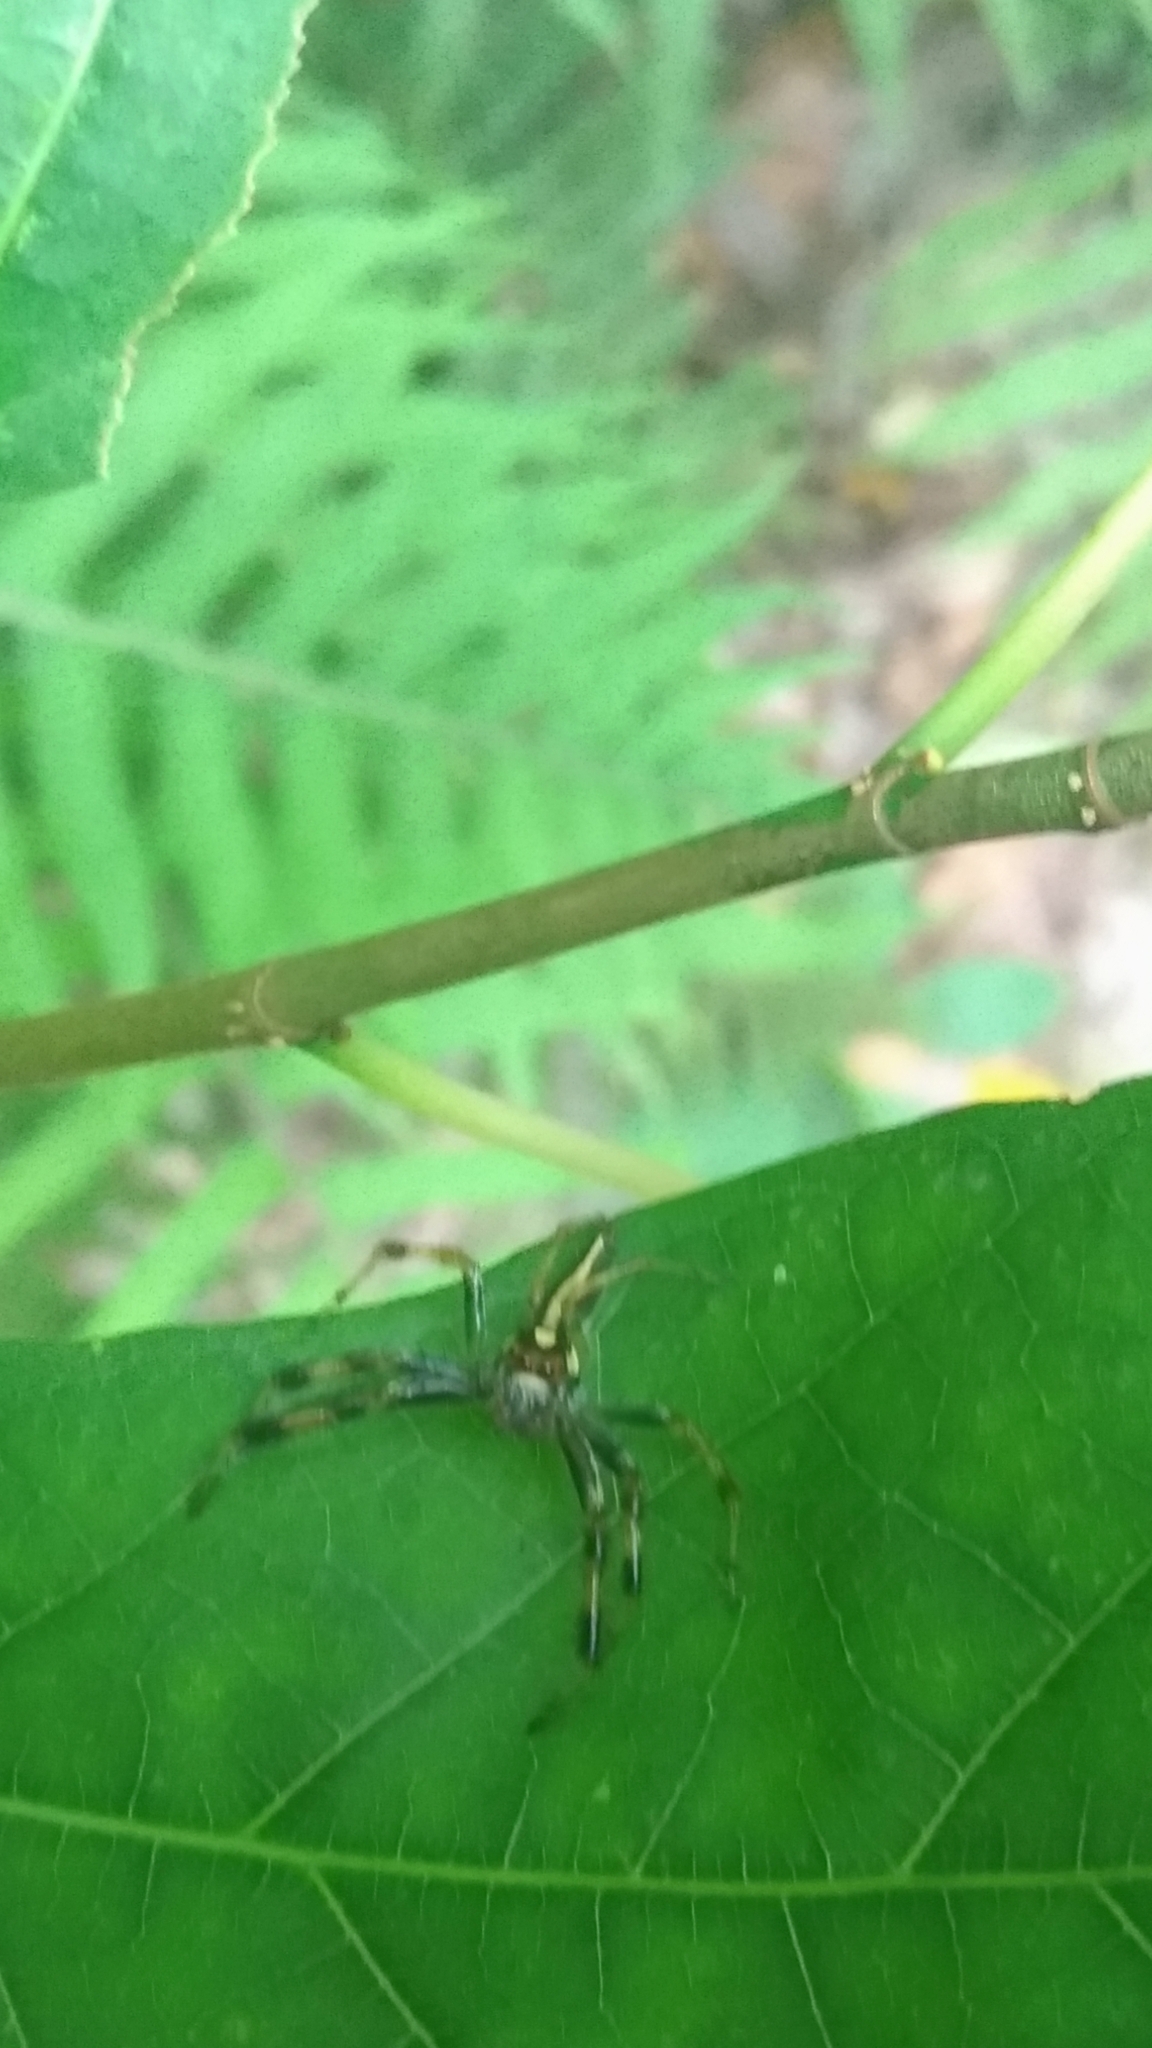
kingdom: Animalia
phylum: Arthropoda
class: Arachnida
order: Araneae
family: Salticidae
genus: Telamonia
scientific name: Telamonia vlijmi
